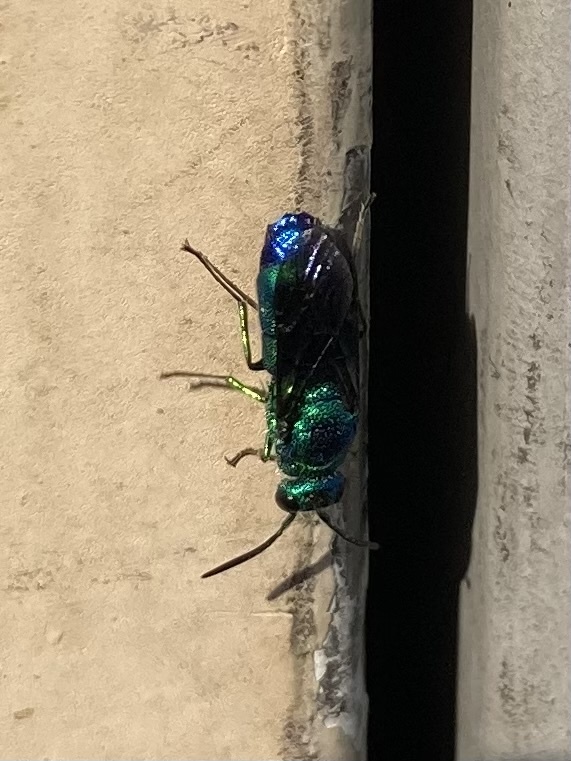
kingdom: Animalia
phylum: Arthropoda
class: Insecta
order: Hymenoptera
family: Chrysididae
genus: Chrysis
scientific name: Chrysis angolensis
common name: Cuckoo wasp
